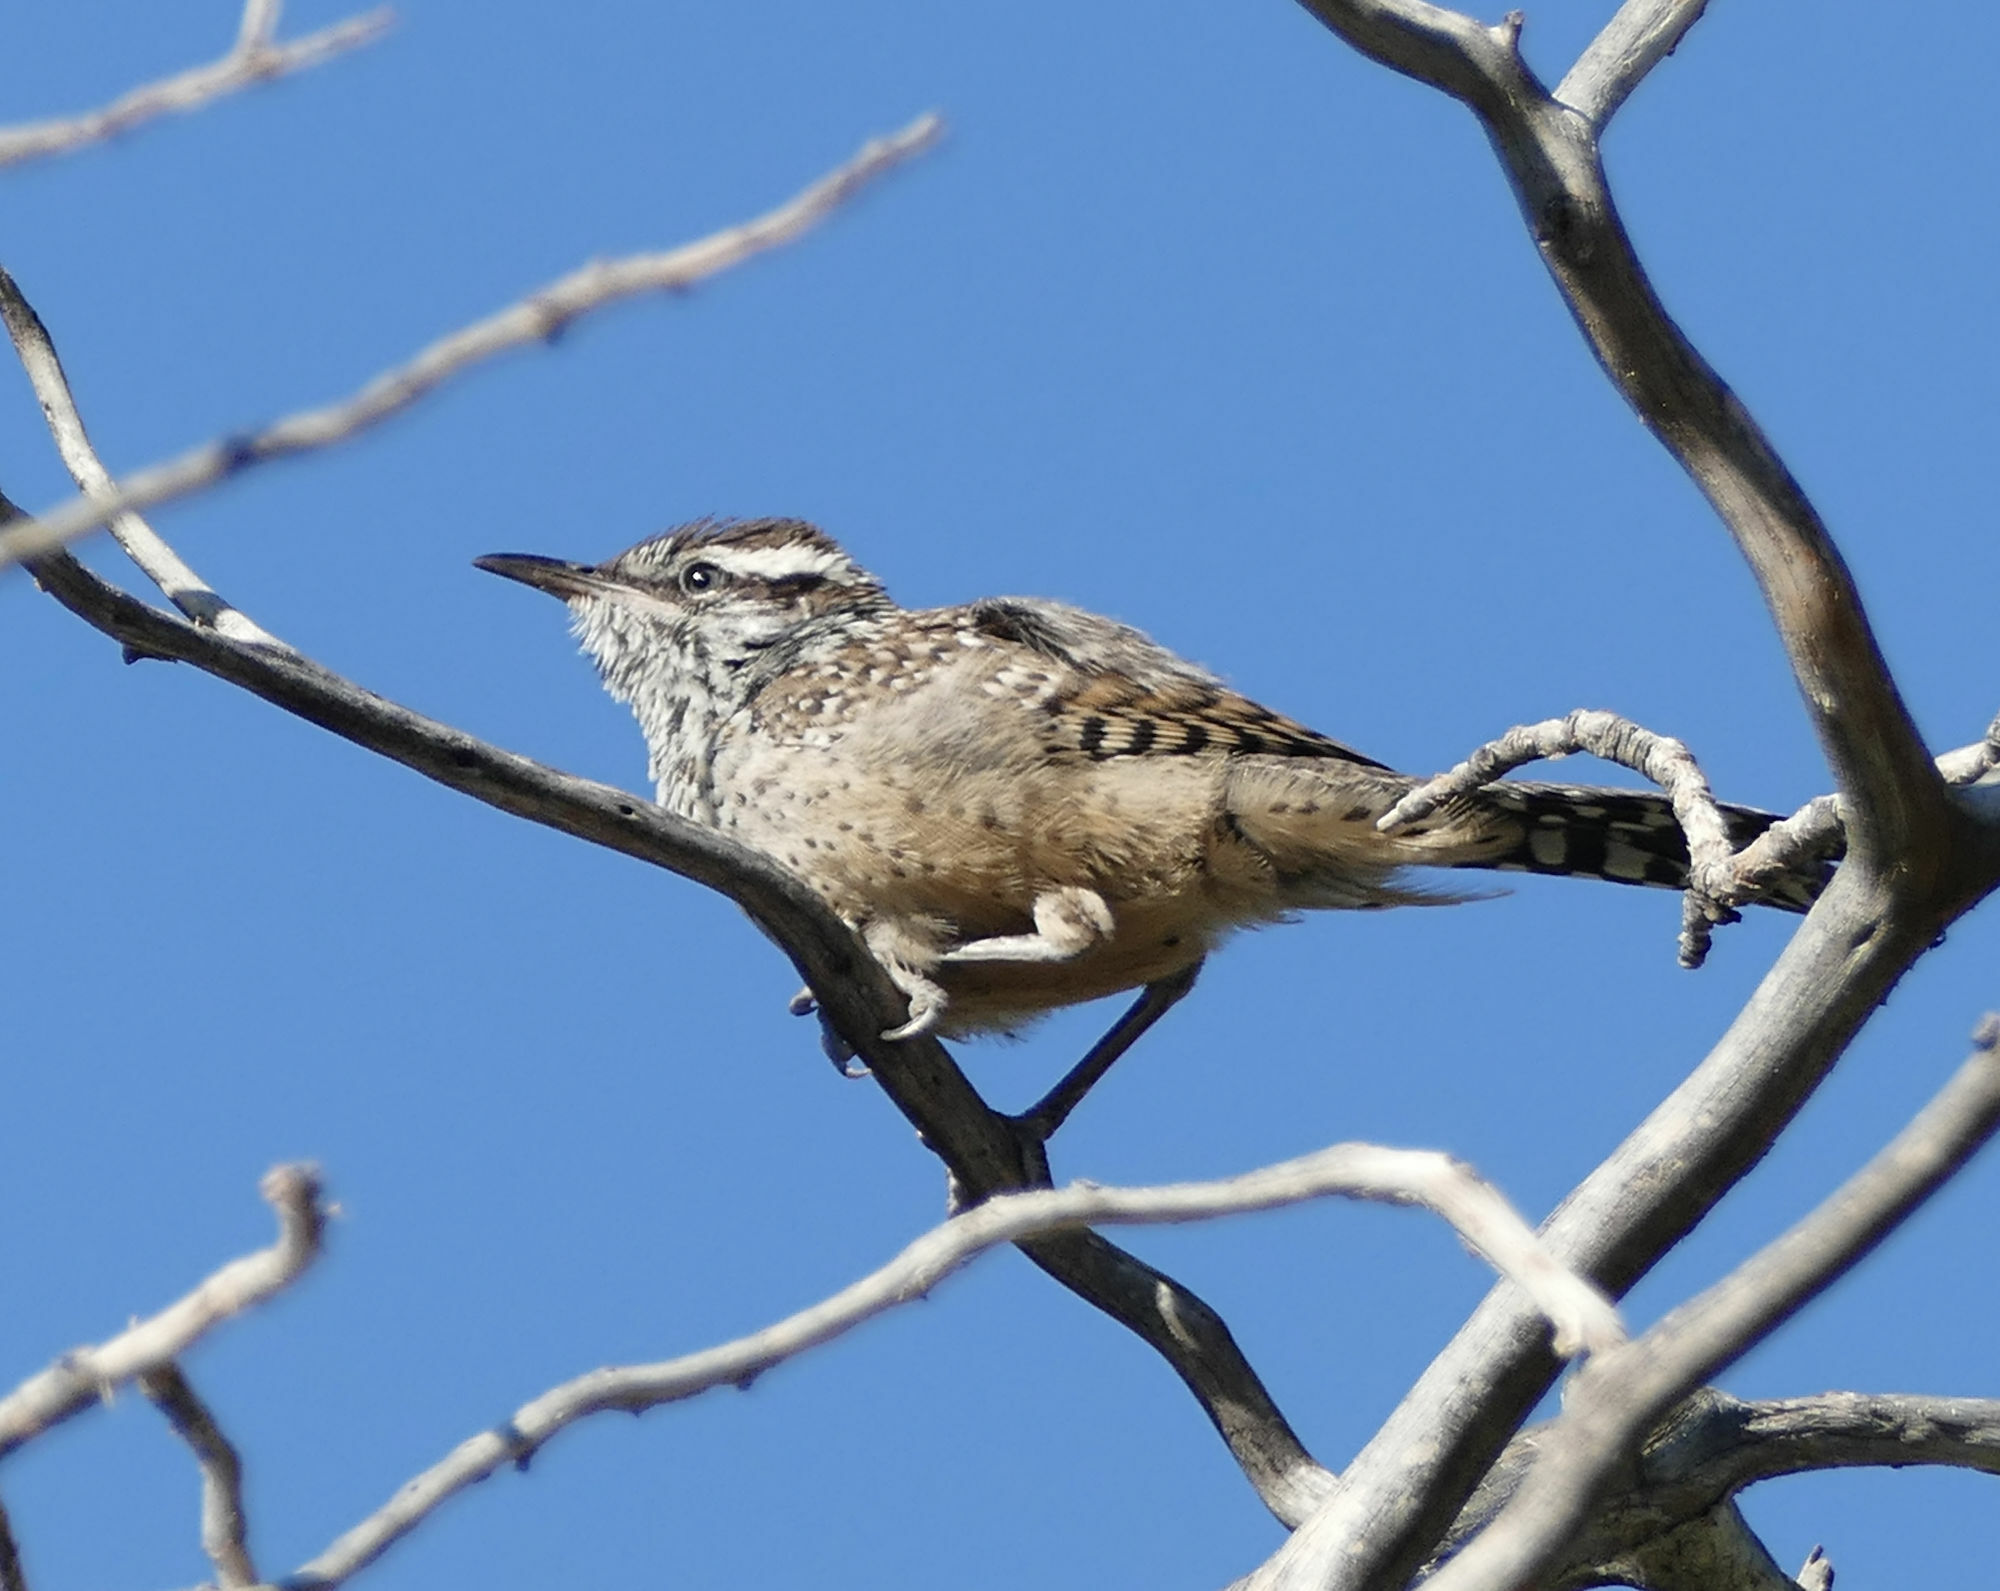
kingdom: Animalia
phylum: Chordata
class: Aves
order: Passeriformes
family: Troglodytidae
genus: Campylorhynchus
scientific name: Campylorhynchus brunneicapillus
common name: Cactus wren
